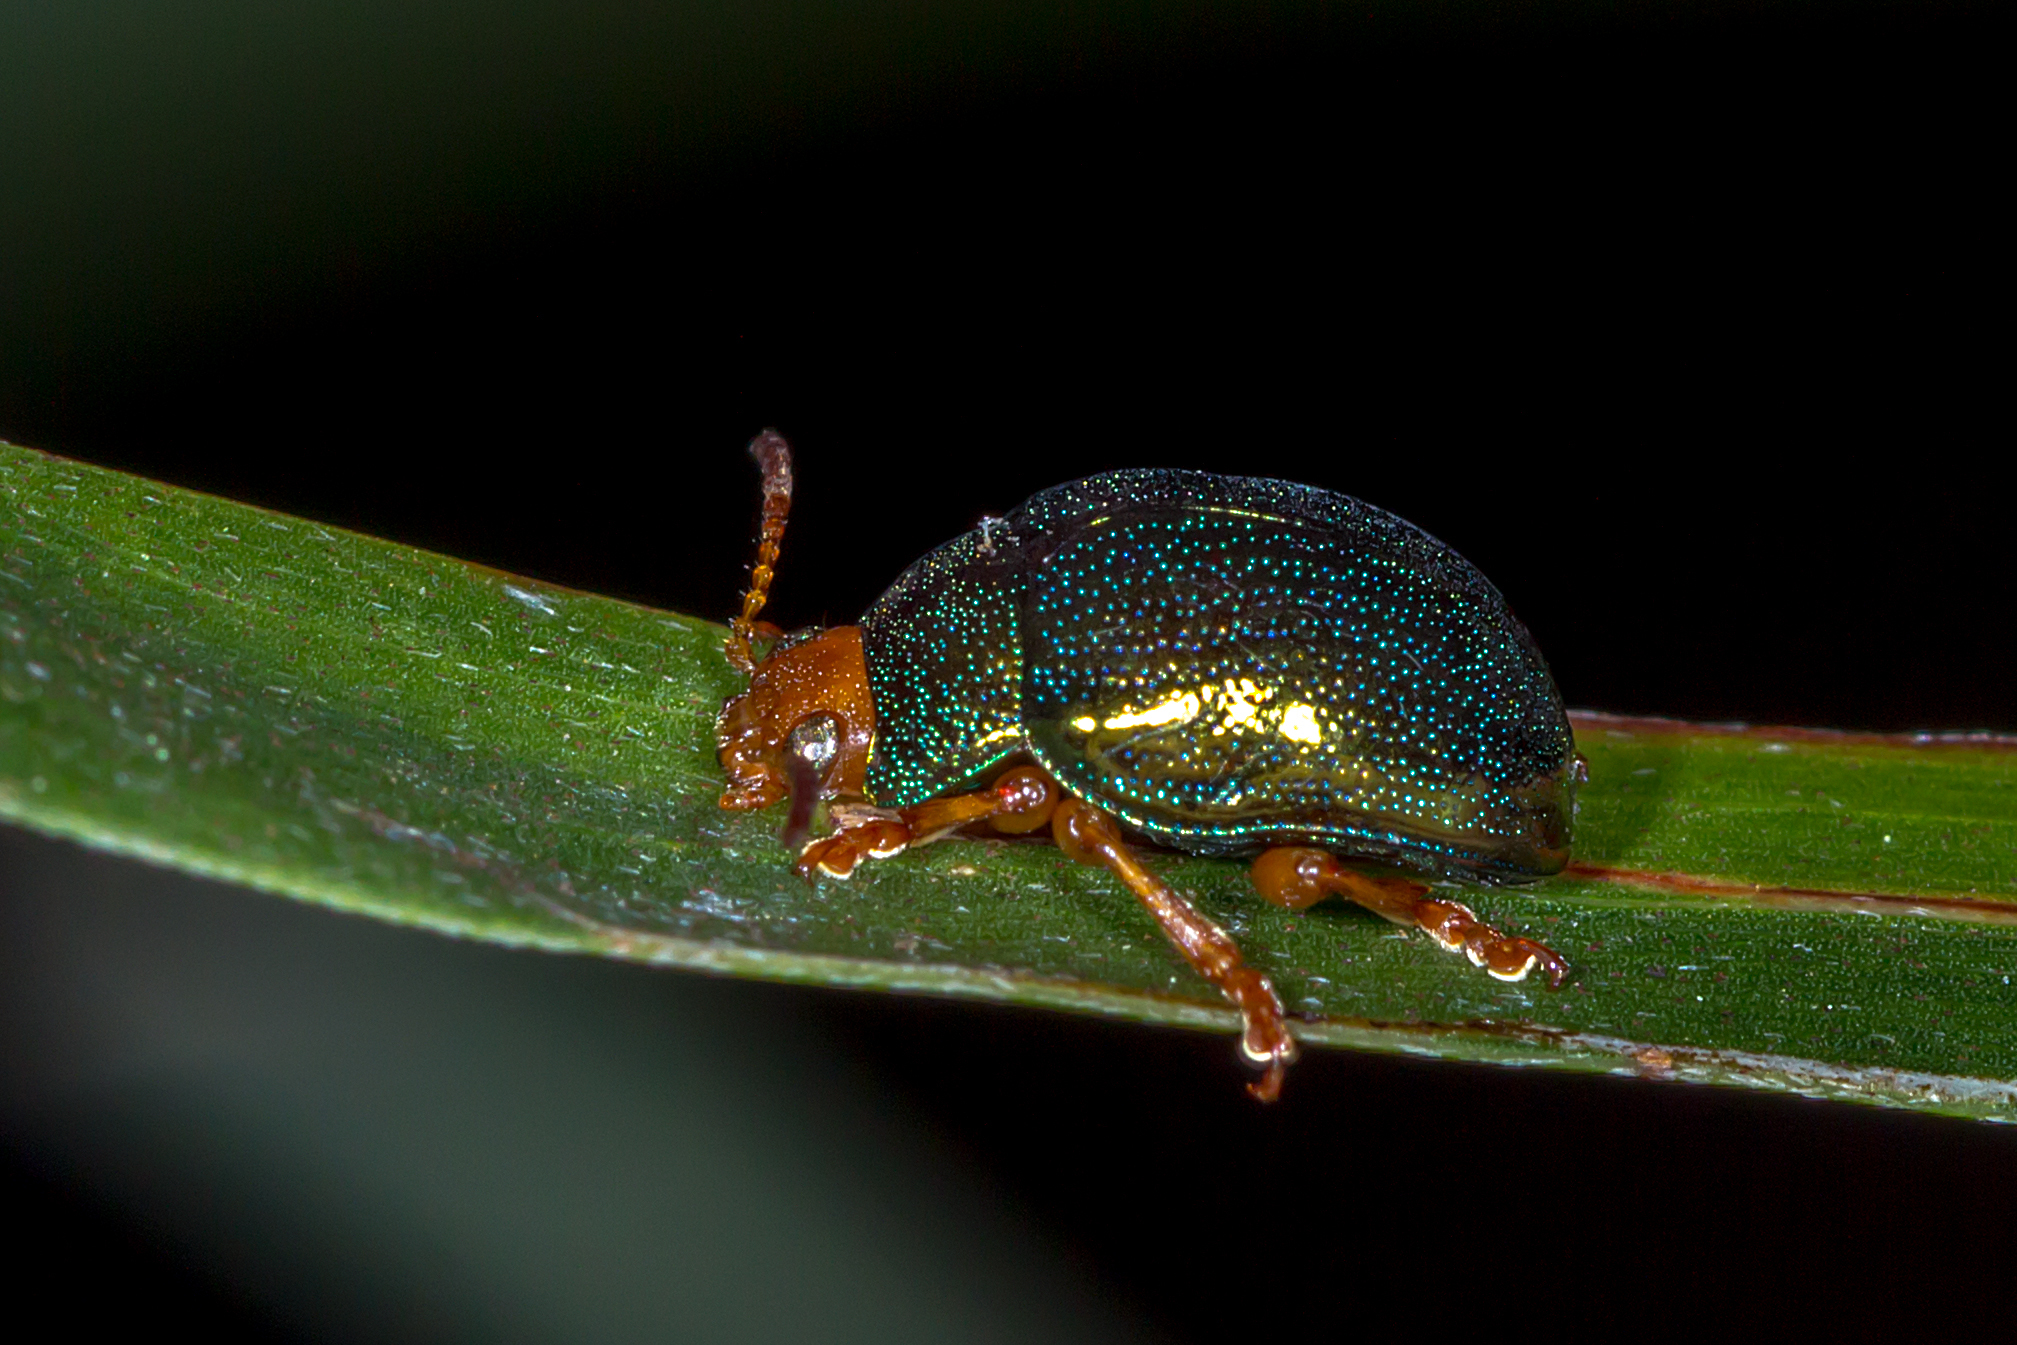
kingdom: Animalia
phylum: Arthropoda
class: Insecta
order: Coleoptera
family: Chrysomelidae
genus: Calomela
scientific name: Calomela
